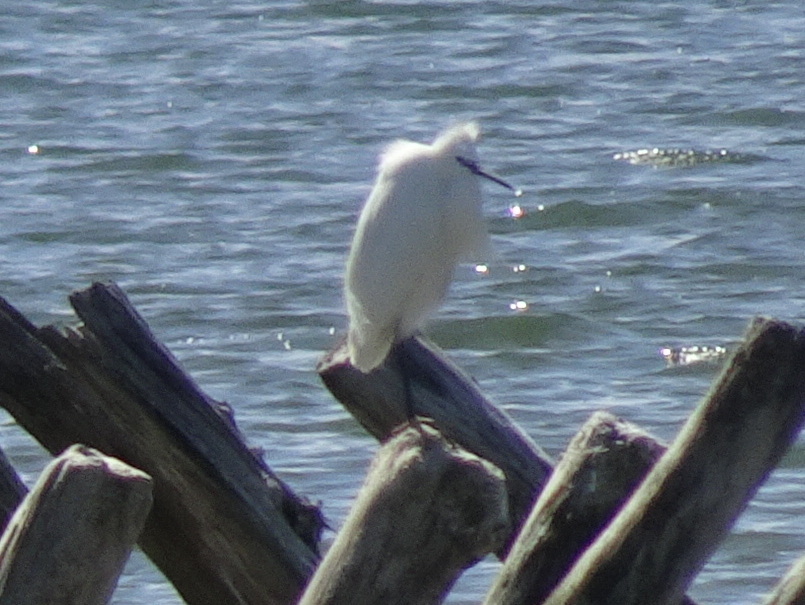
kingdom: Animalia
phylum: Chordata
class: Aves
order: Pelecaniformes
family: Ardeidae
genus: Egretta
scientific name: Egretta garzetta
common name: Little egret
